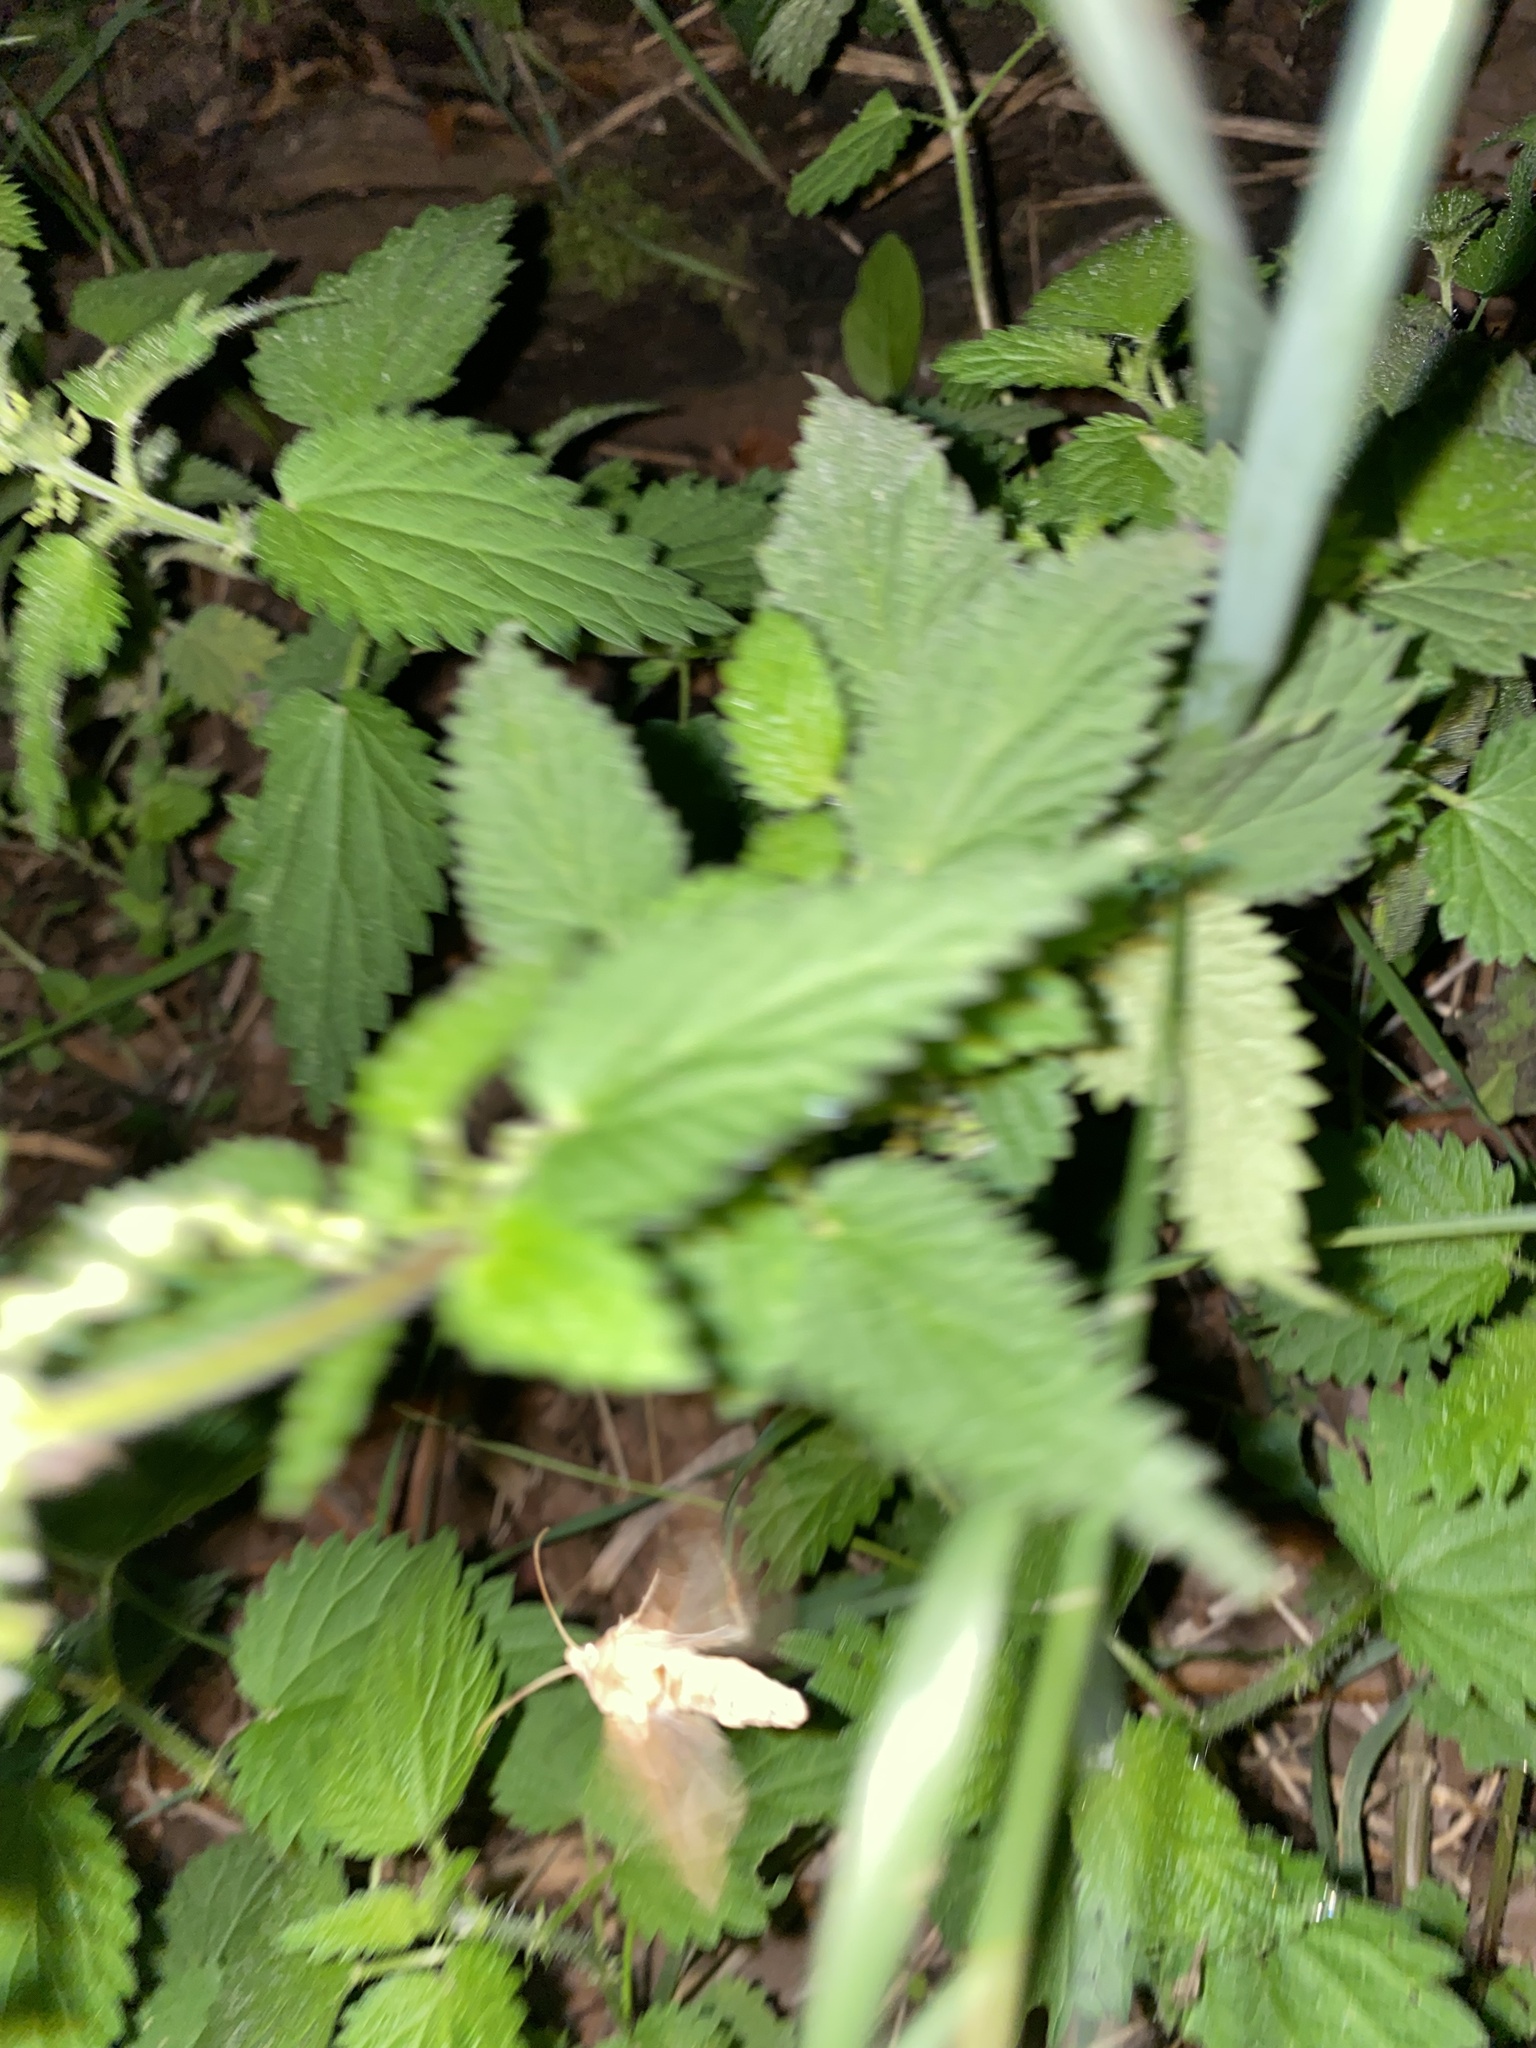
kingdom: Animalia
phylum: Arthropoda
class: Insecta
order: Lepidoptera
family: Noctuidae
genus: Phlogophora
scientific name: Phlogophora meticulosa
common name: Angle shades
